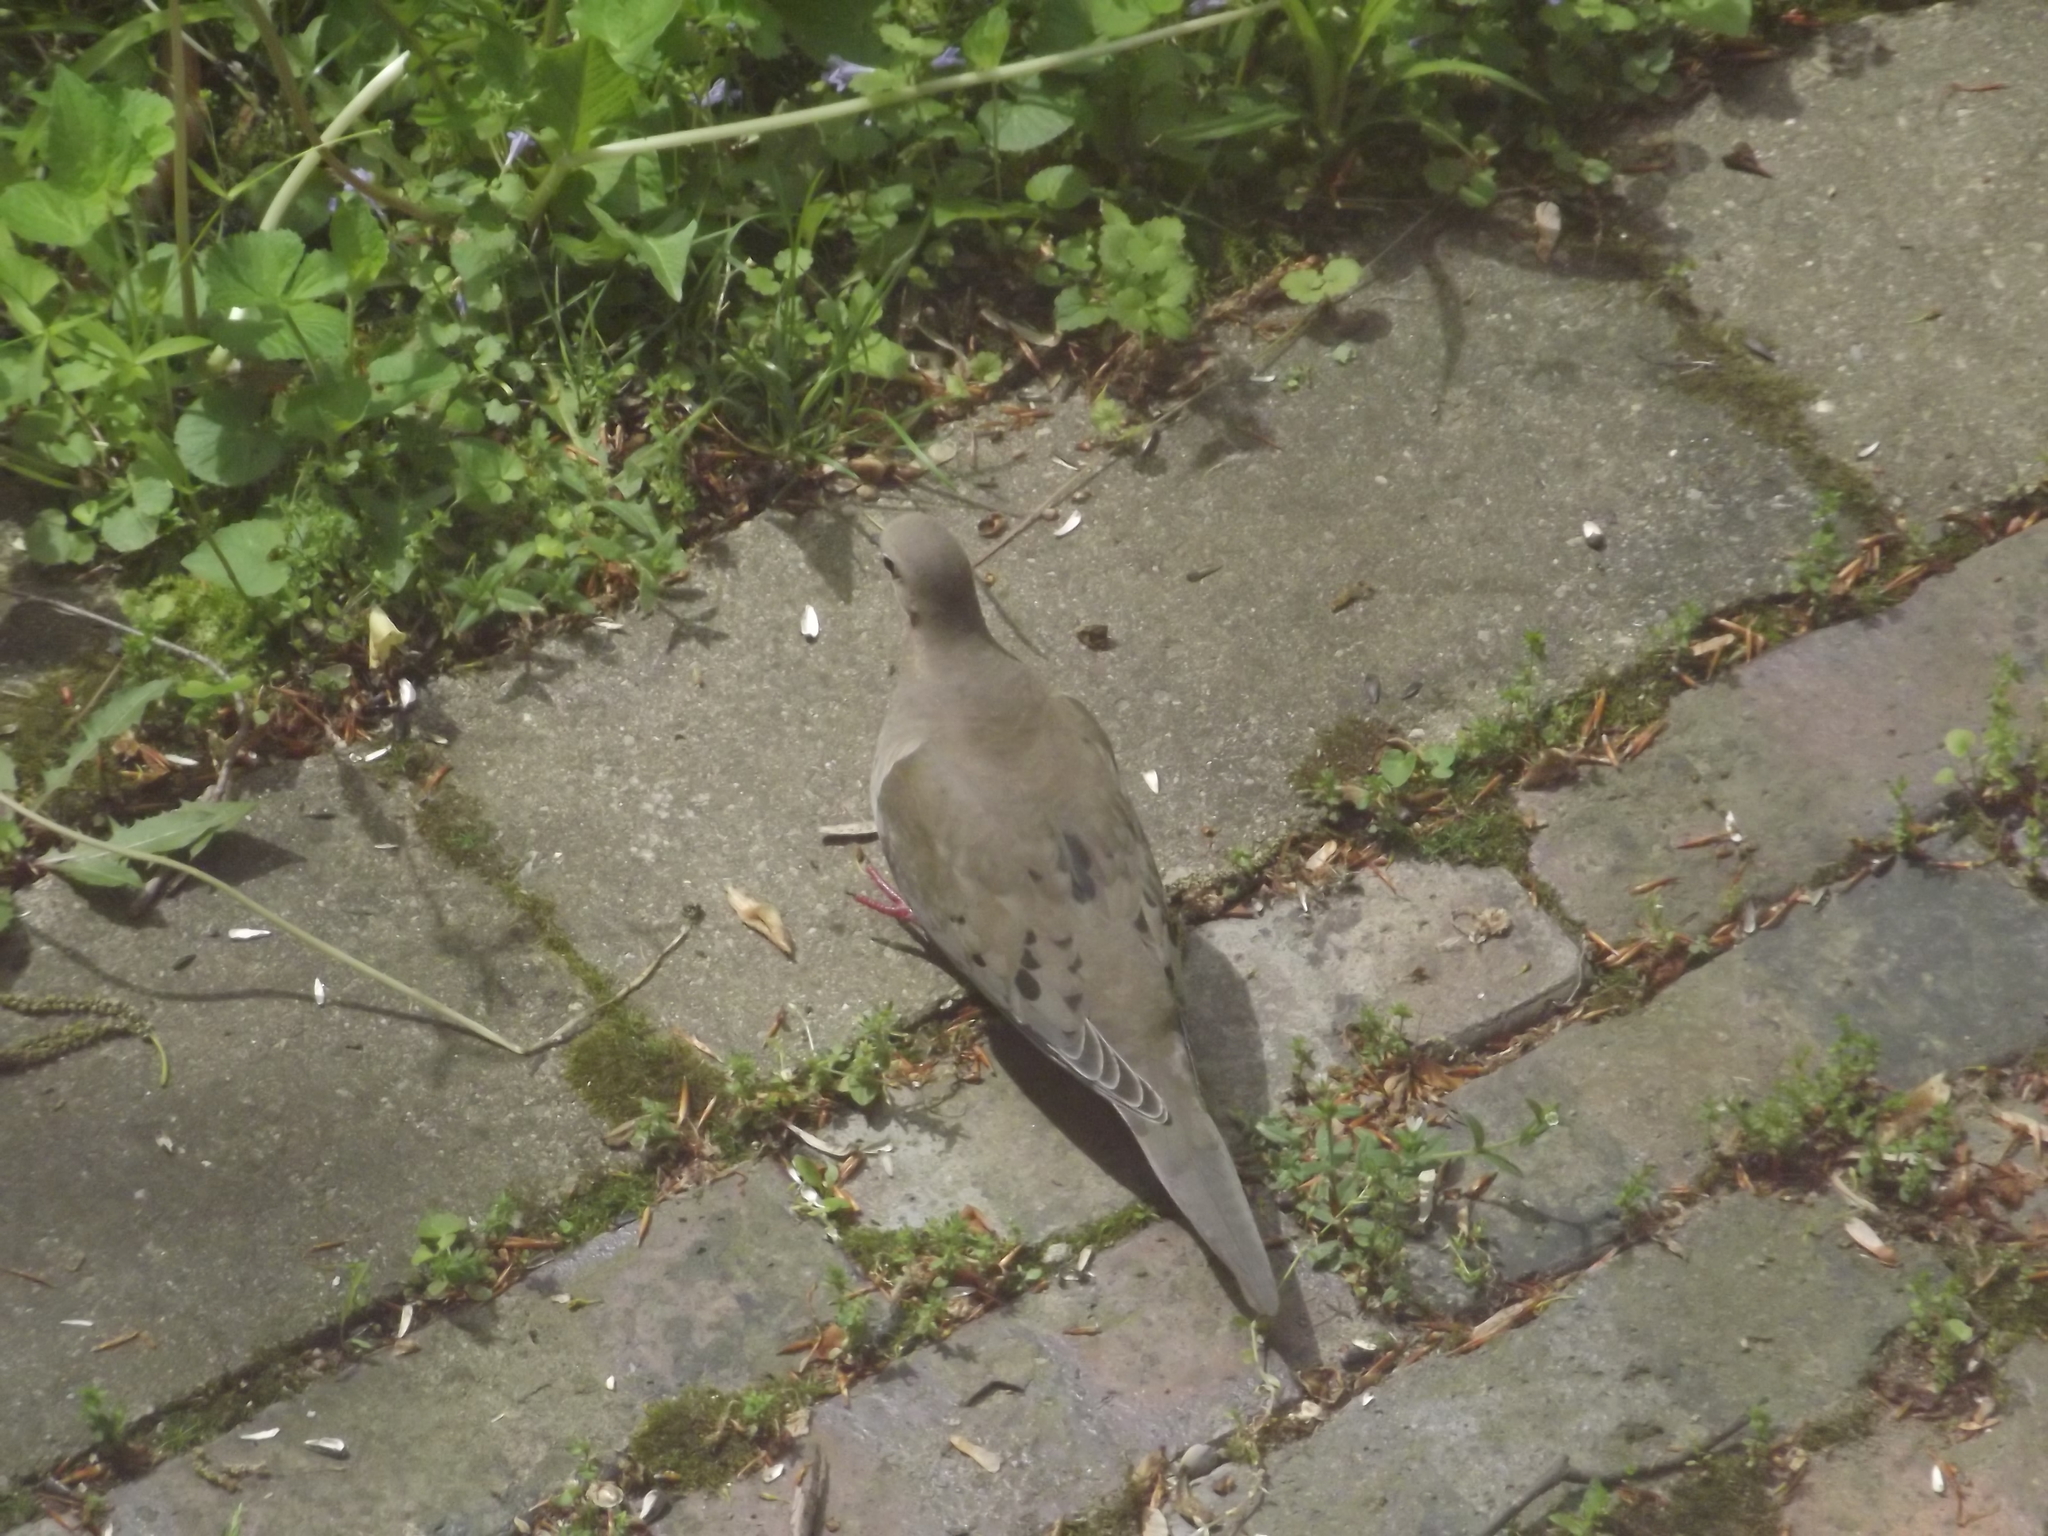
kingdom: Animalia
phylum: Chordata
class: Aves
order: Columbiformes
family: Columbidae
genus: Zenaida
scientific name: Zenaida macroura
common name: Mourning dove
